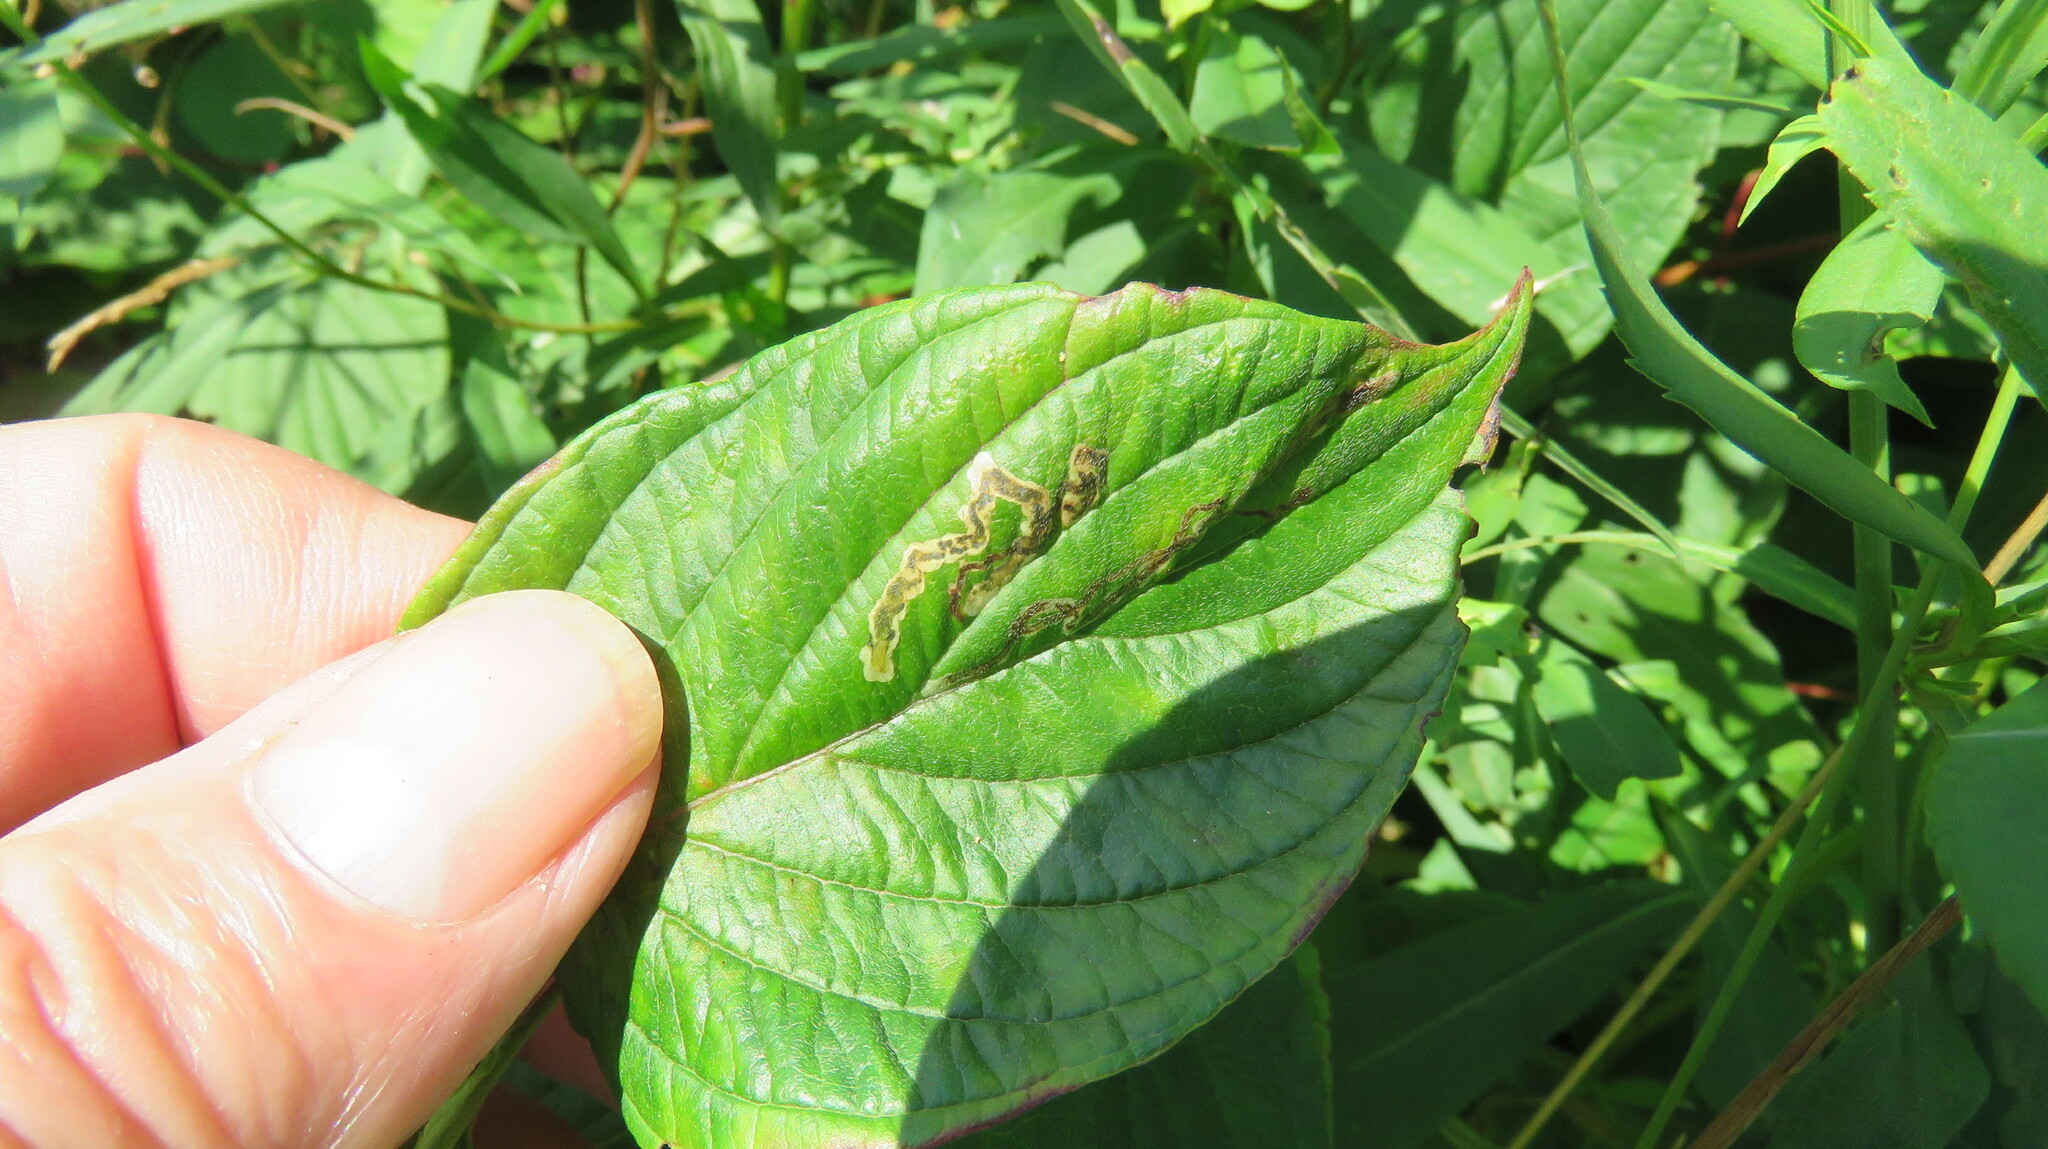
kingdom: Animalia
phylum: Arthropoda
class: Insecta
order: Diptera
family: Agromyzidae
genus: Phytomyza
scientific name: Phytomyza agromyzina
